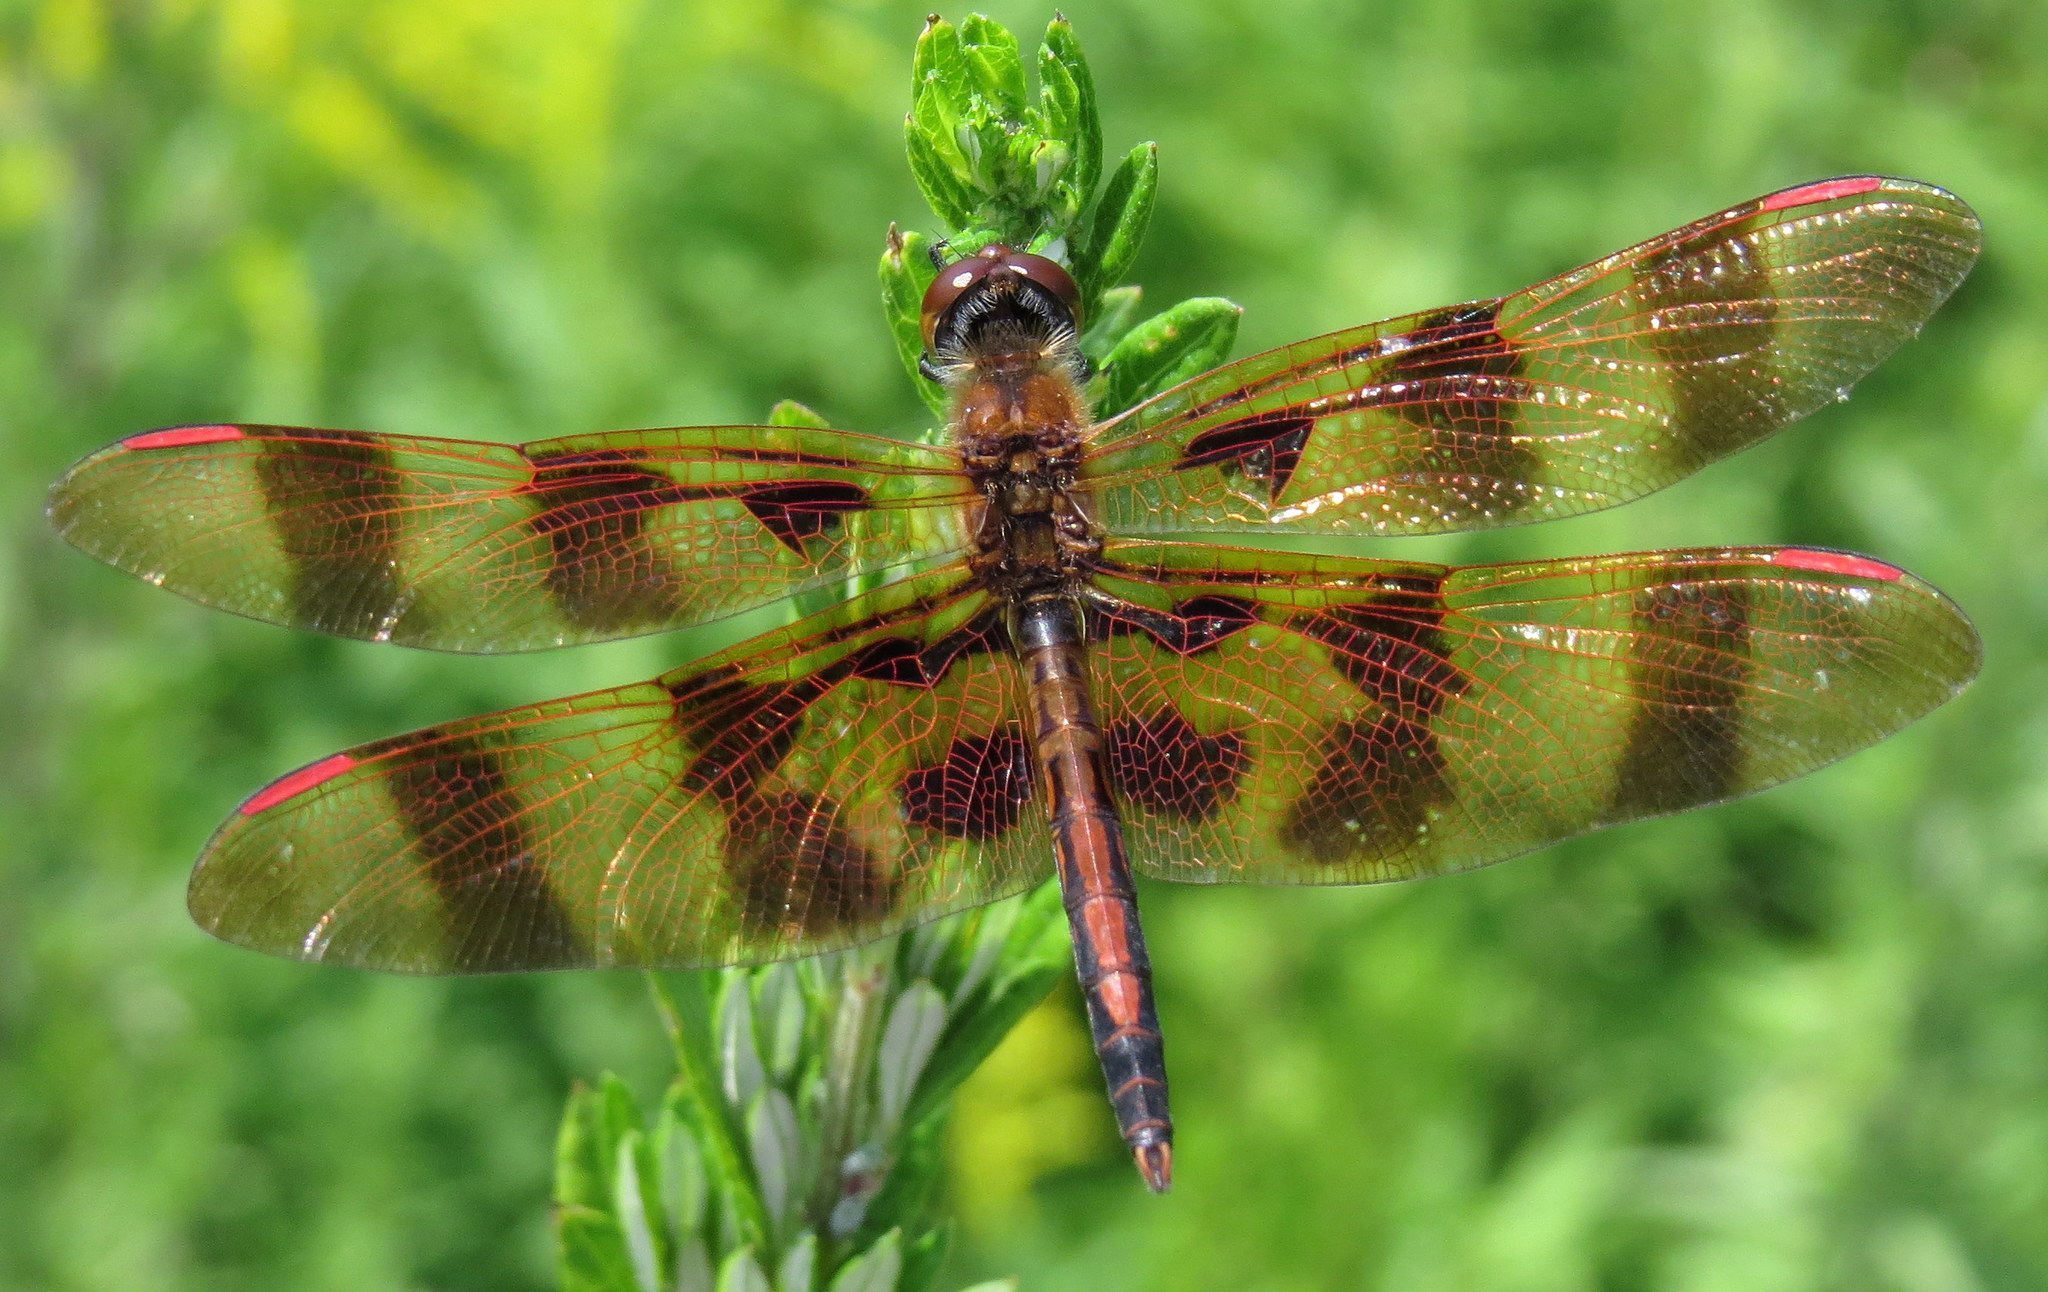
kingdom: Animalia
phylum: Arthropoda
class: Insecta
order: Odonata
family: Libellulidae
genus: Celithemis
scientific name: Celithemis eponina
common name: Halloween pennant
